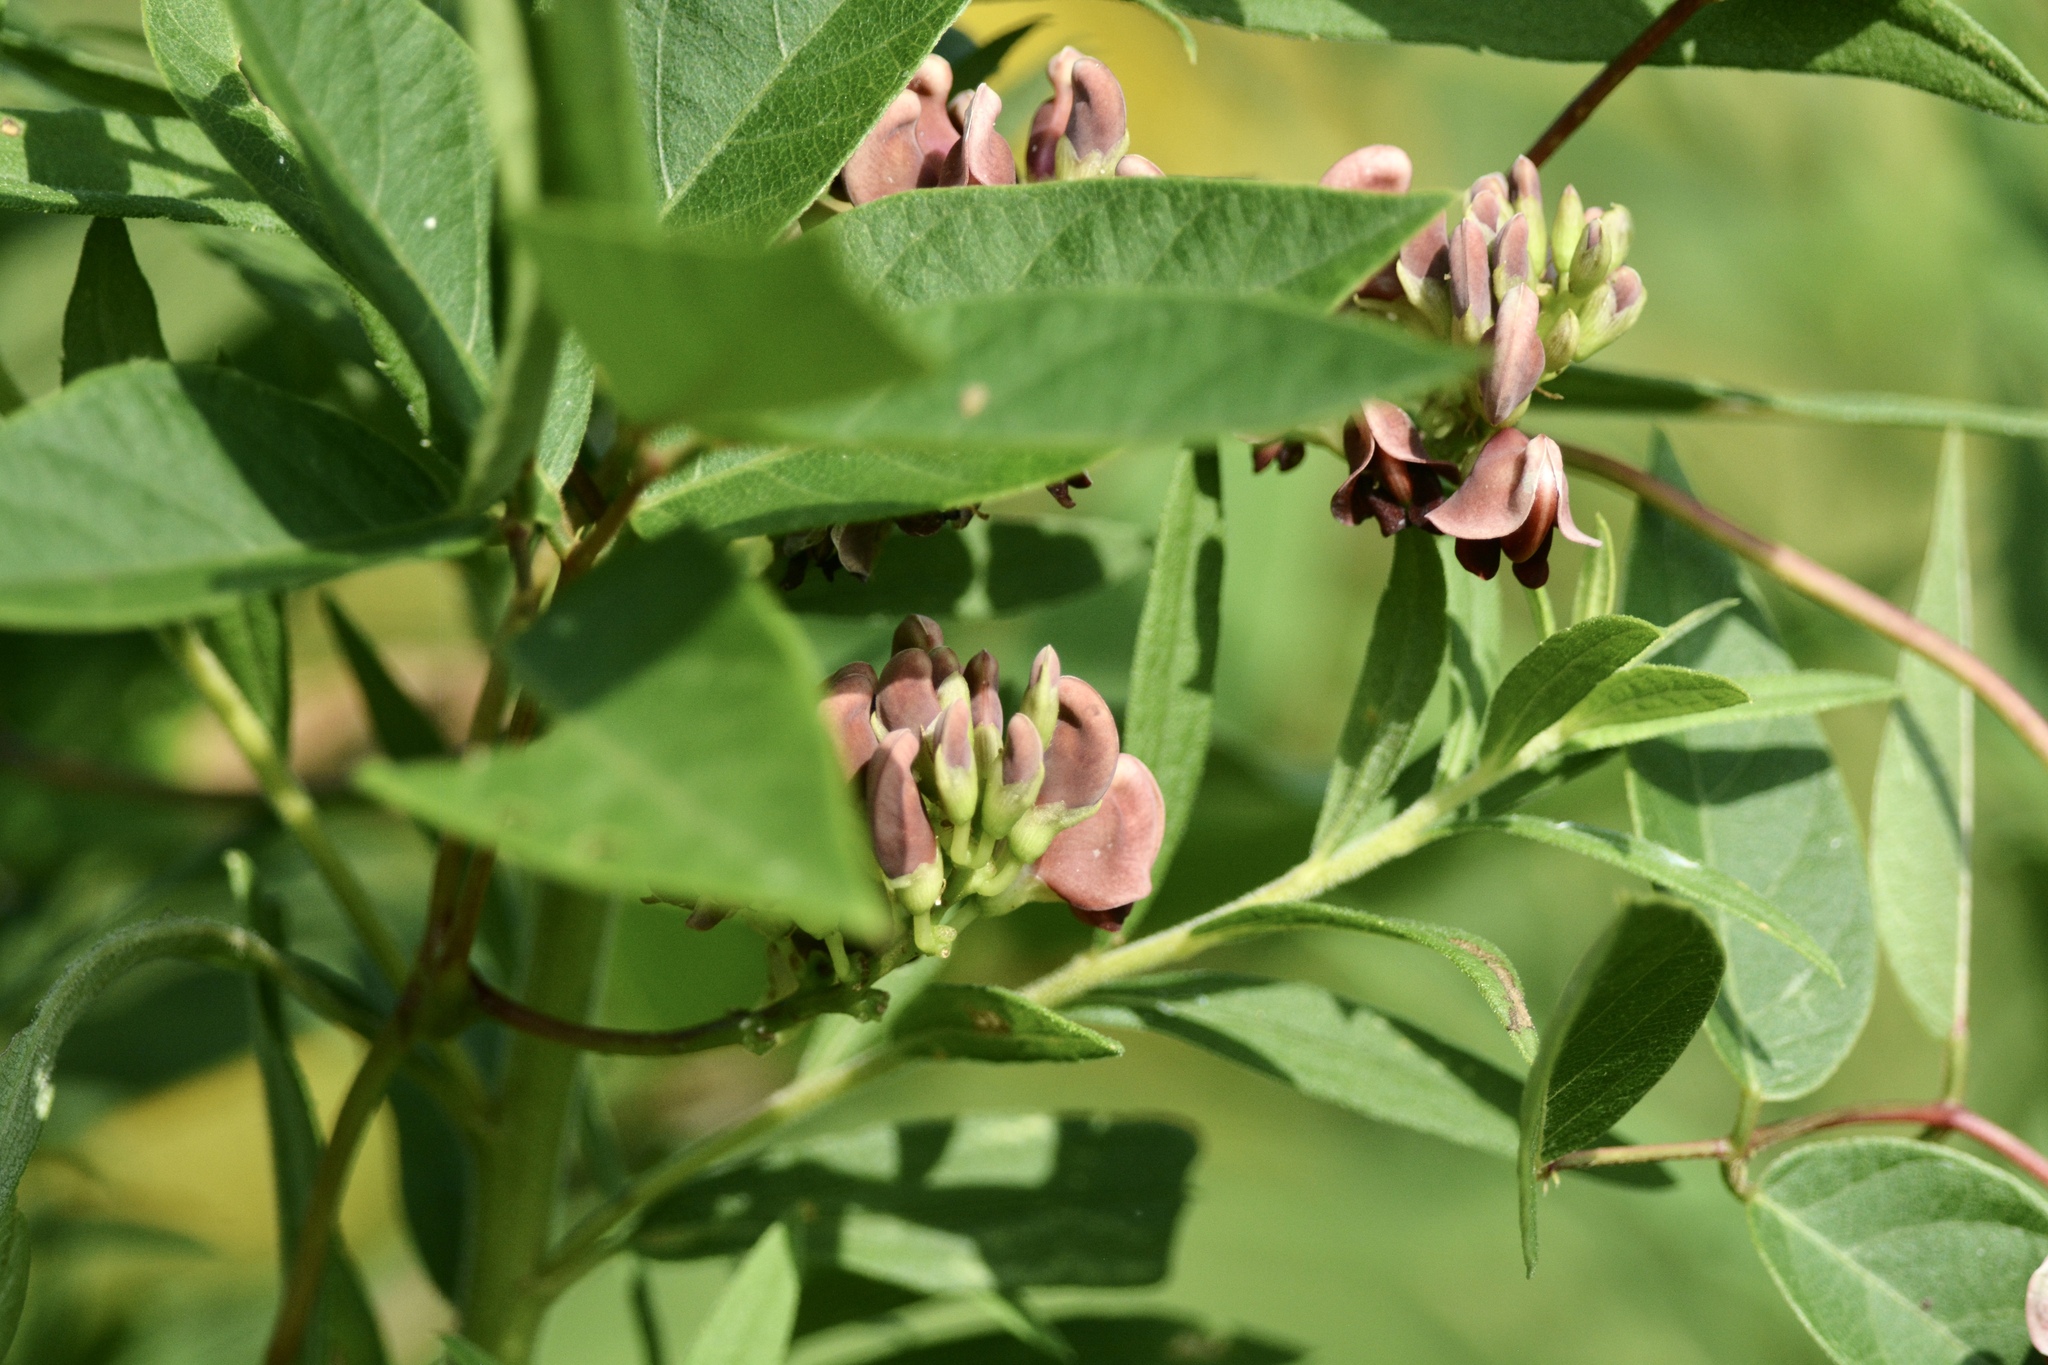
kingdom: Plantae
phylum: Tracheophyta
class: Magnoliopsida
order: Fabales
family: Fabaceae
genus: Apios
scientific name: Apios americana
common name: American potato-bean
